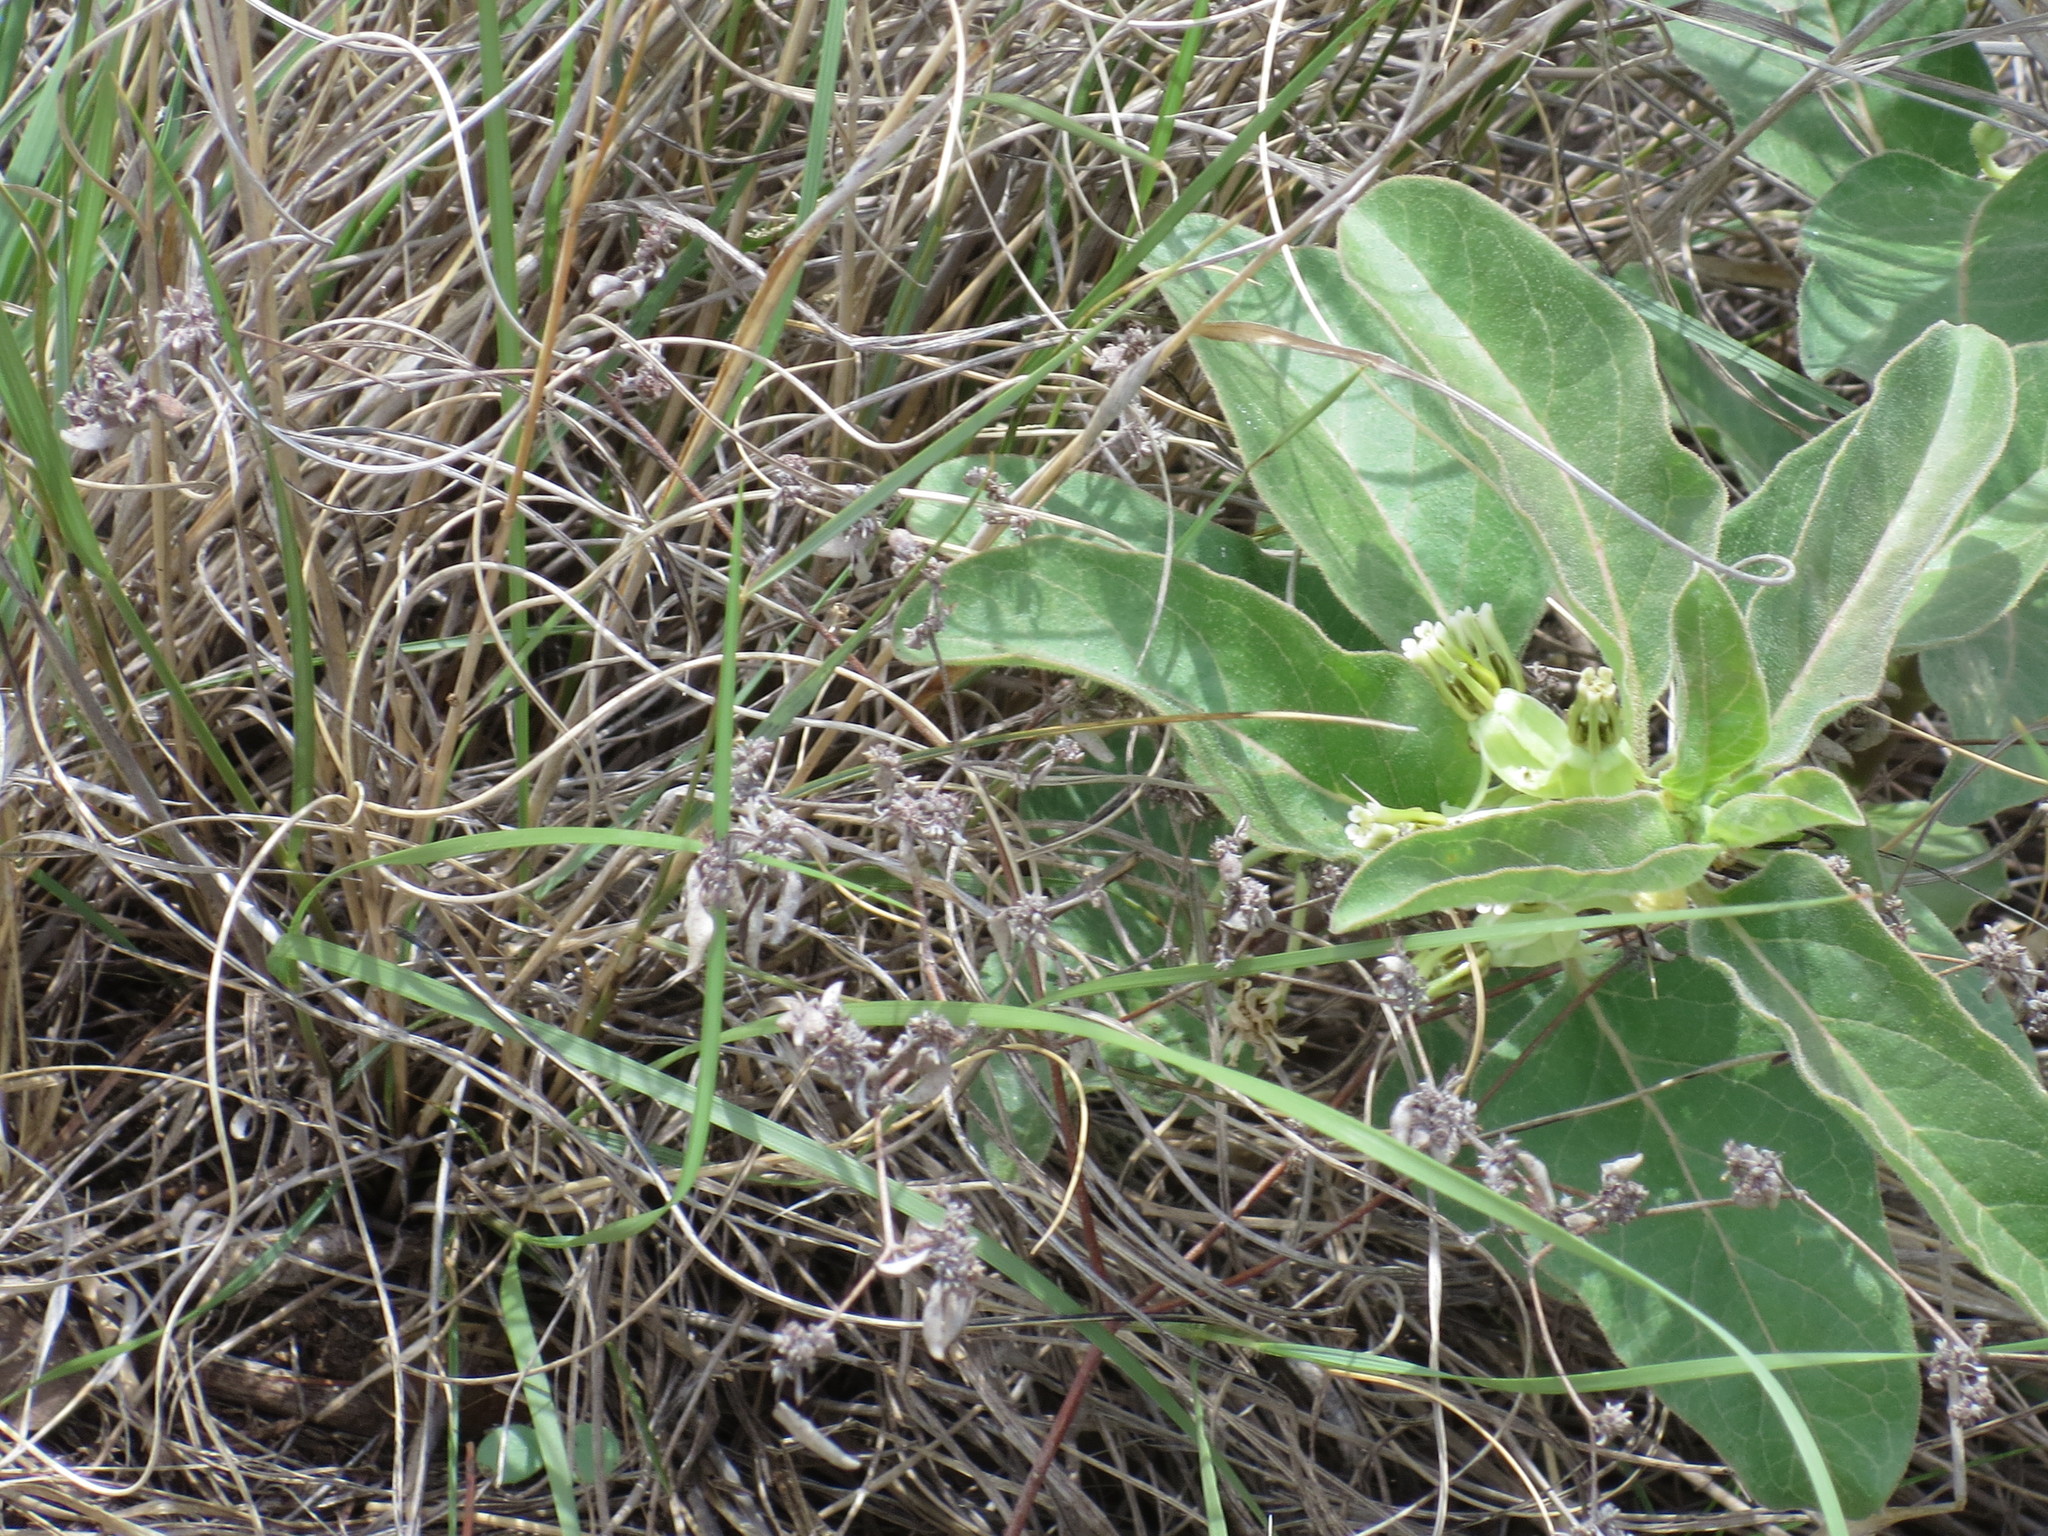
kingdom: Plantae
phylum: Tracheophyta
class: Magnoliopsida
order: Gentianales
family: Apocynaceae
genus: Asclepias
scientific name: Asclepias oenotheroides
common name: Zizotes milkweed
